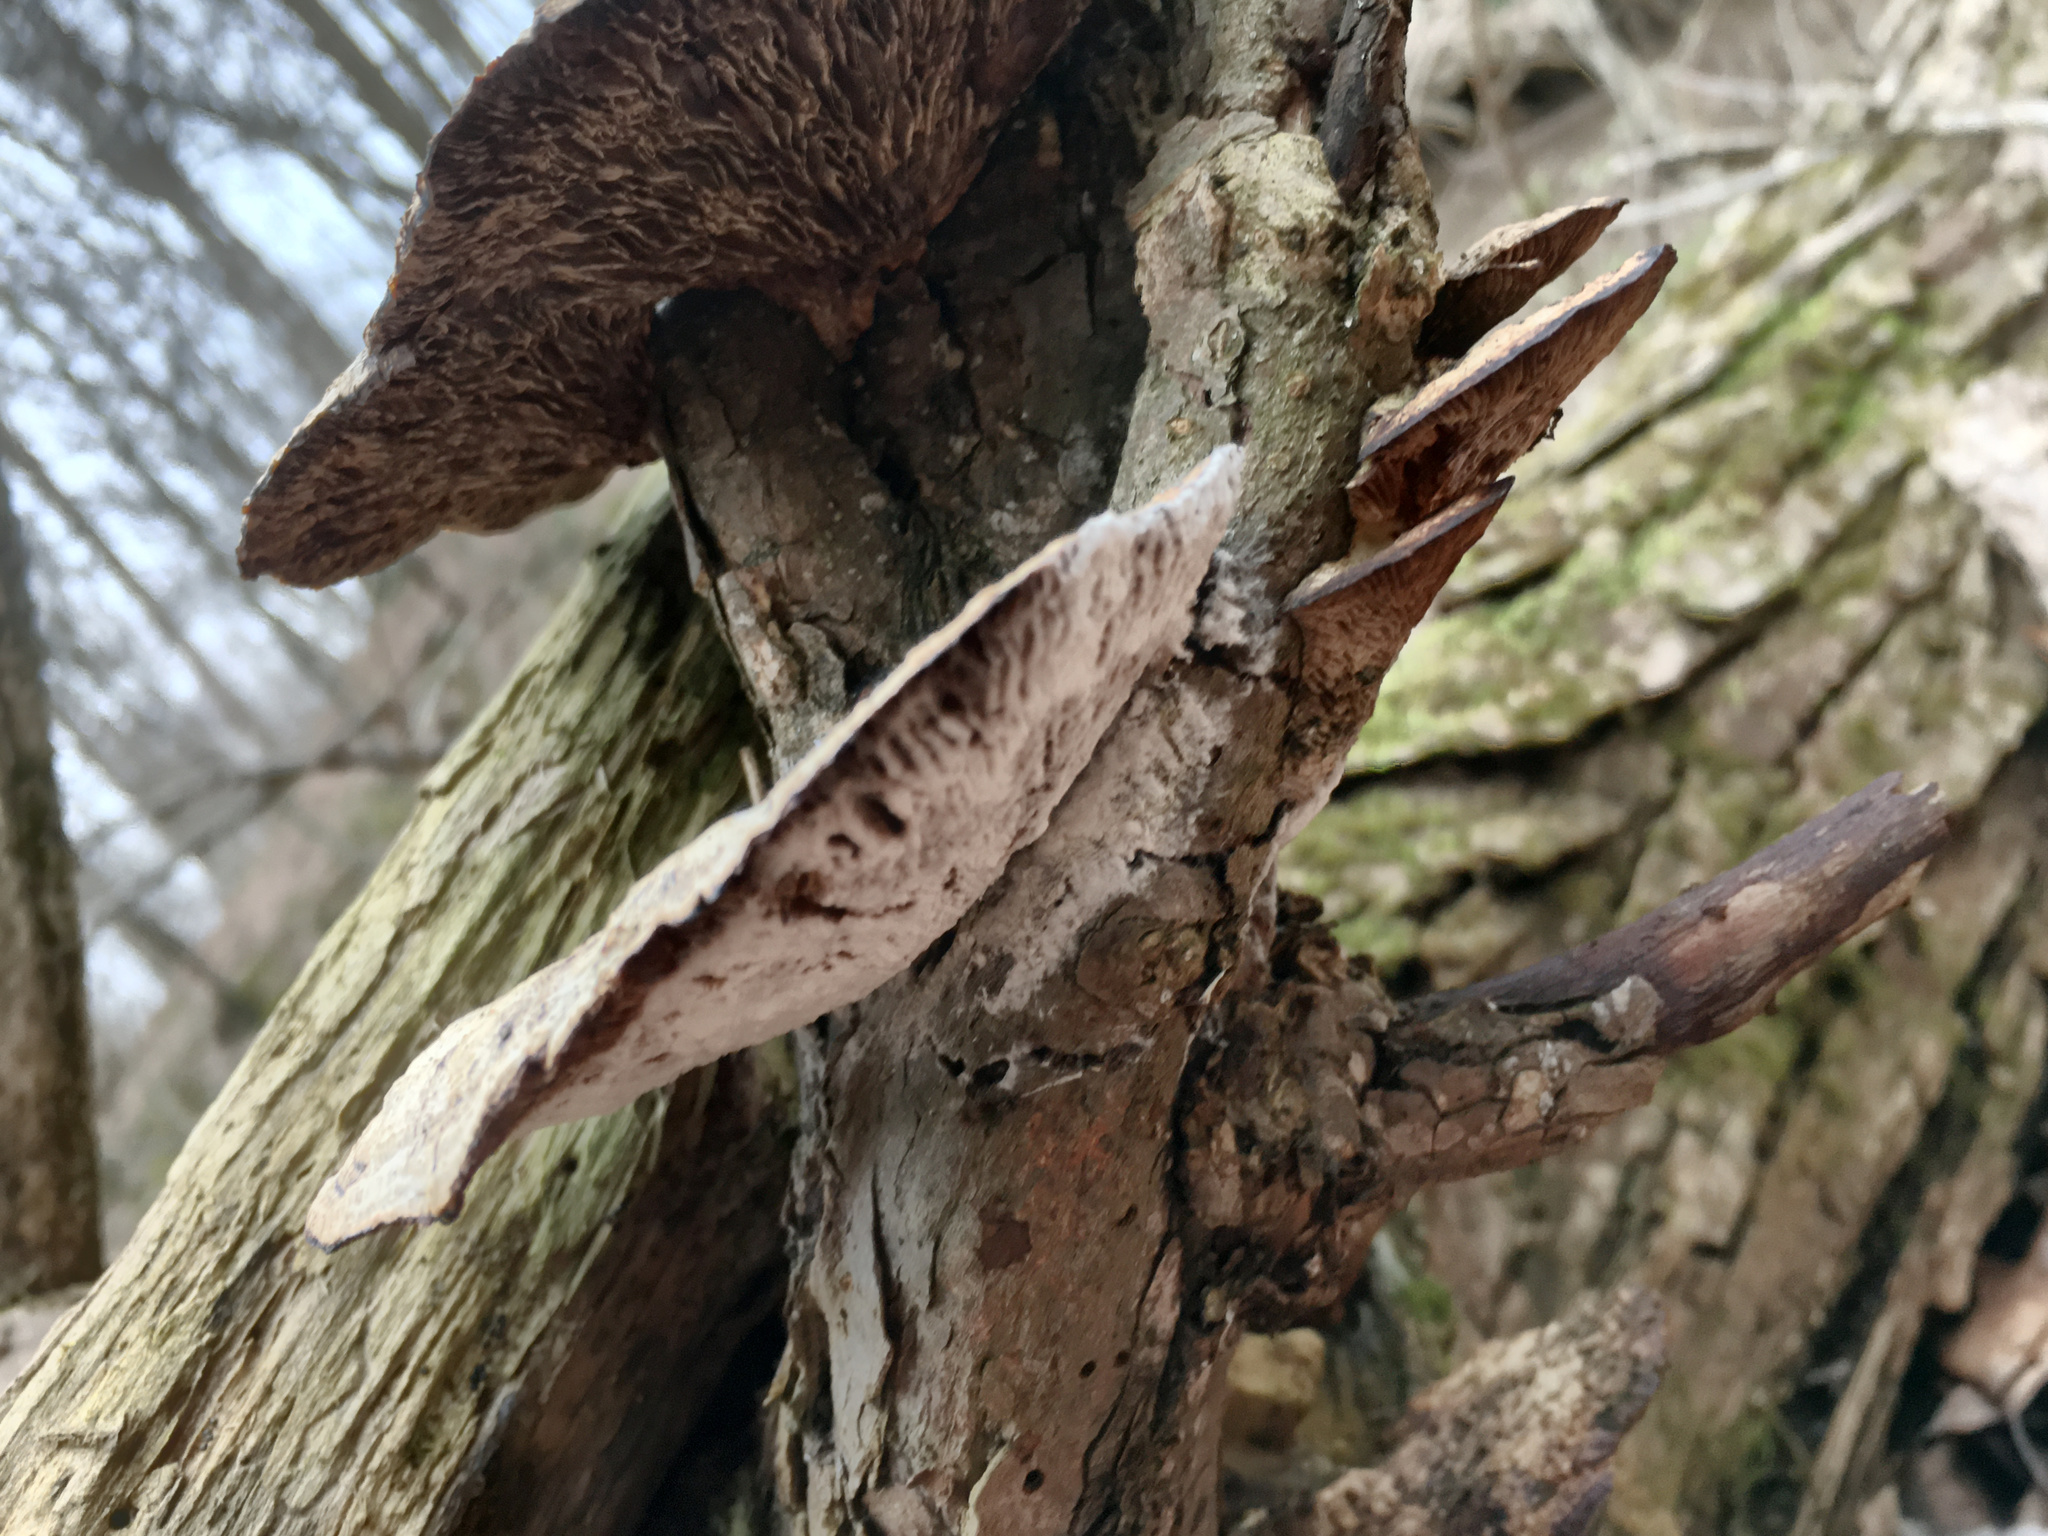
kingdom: Fungi
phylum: Basidiomycota
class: Agaricomycetes
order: Polyporales
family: Polyporaceae
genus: Trametes
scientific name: Trametes
